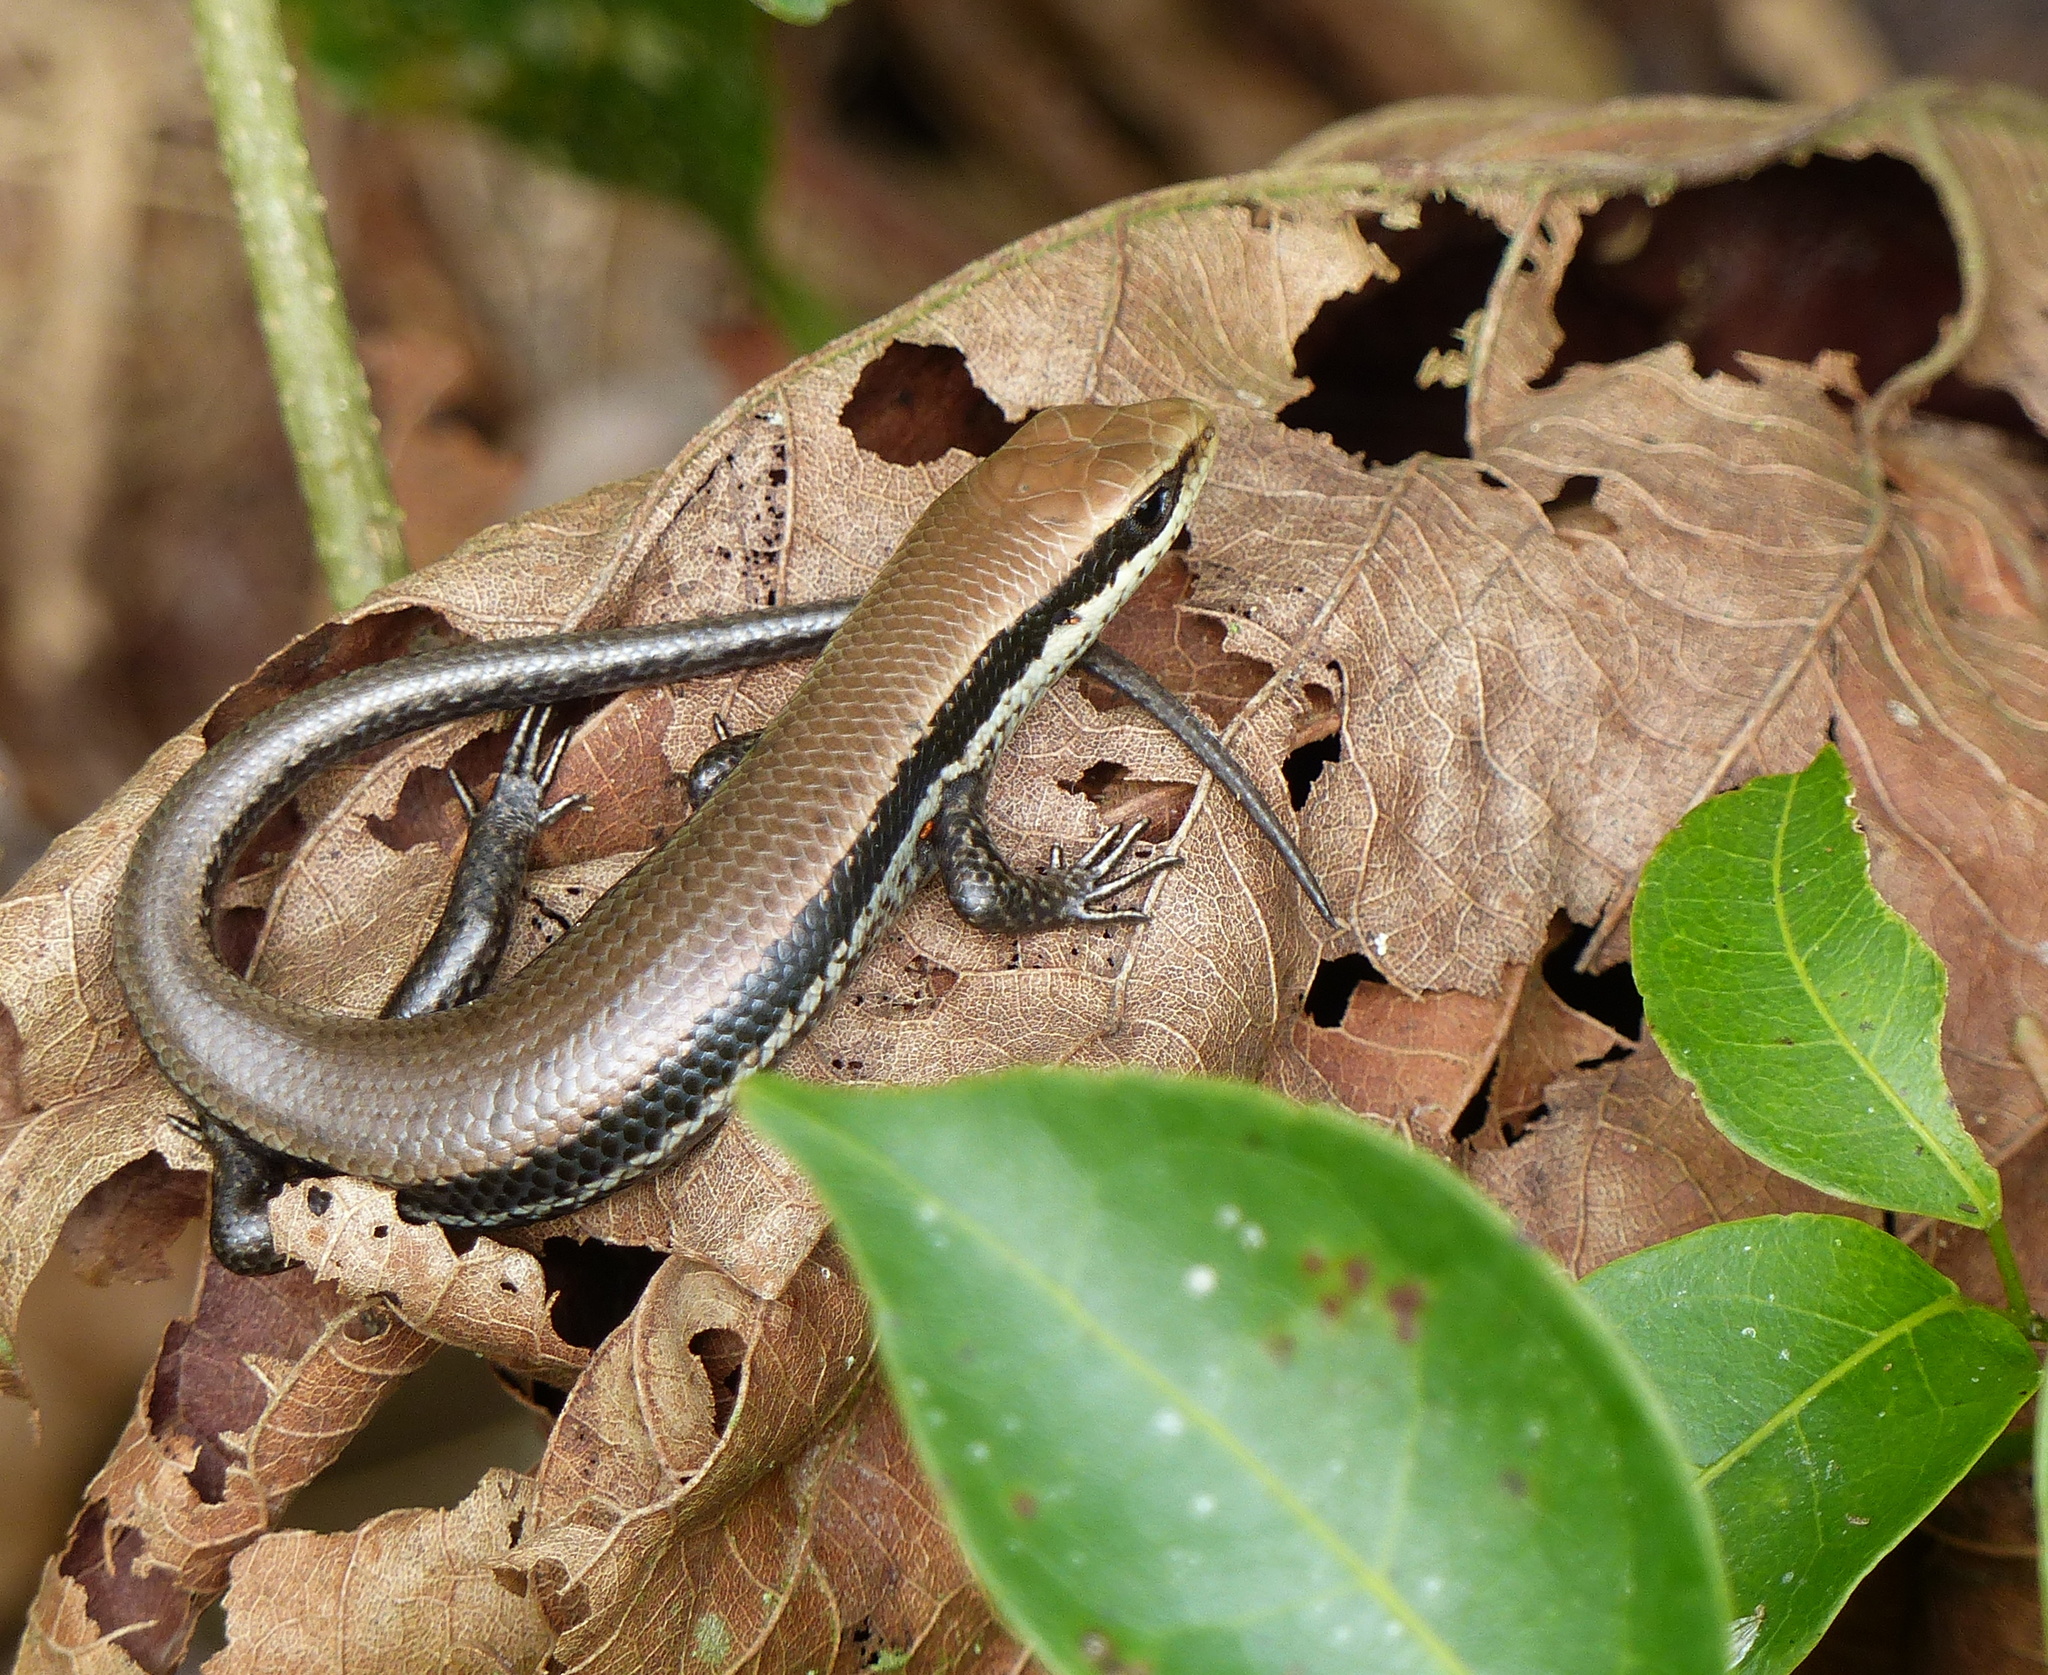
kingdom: Animalia
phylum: Chordata
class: Squamata
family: Scincidae
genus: Copeoglossum
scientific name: Copeoglossum nigropunctatum
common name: Black-spotted skink
